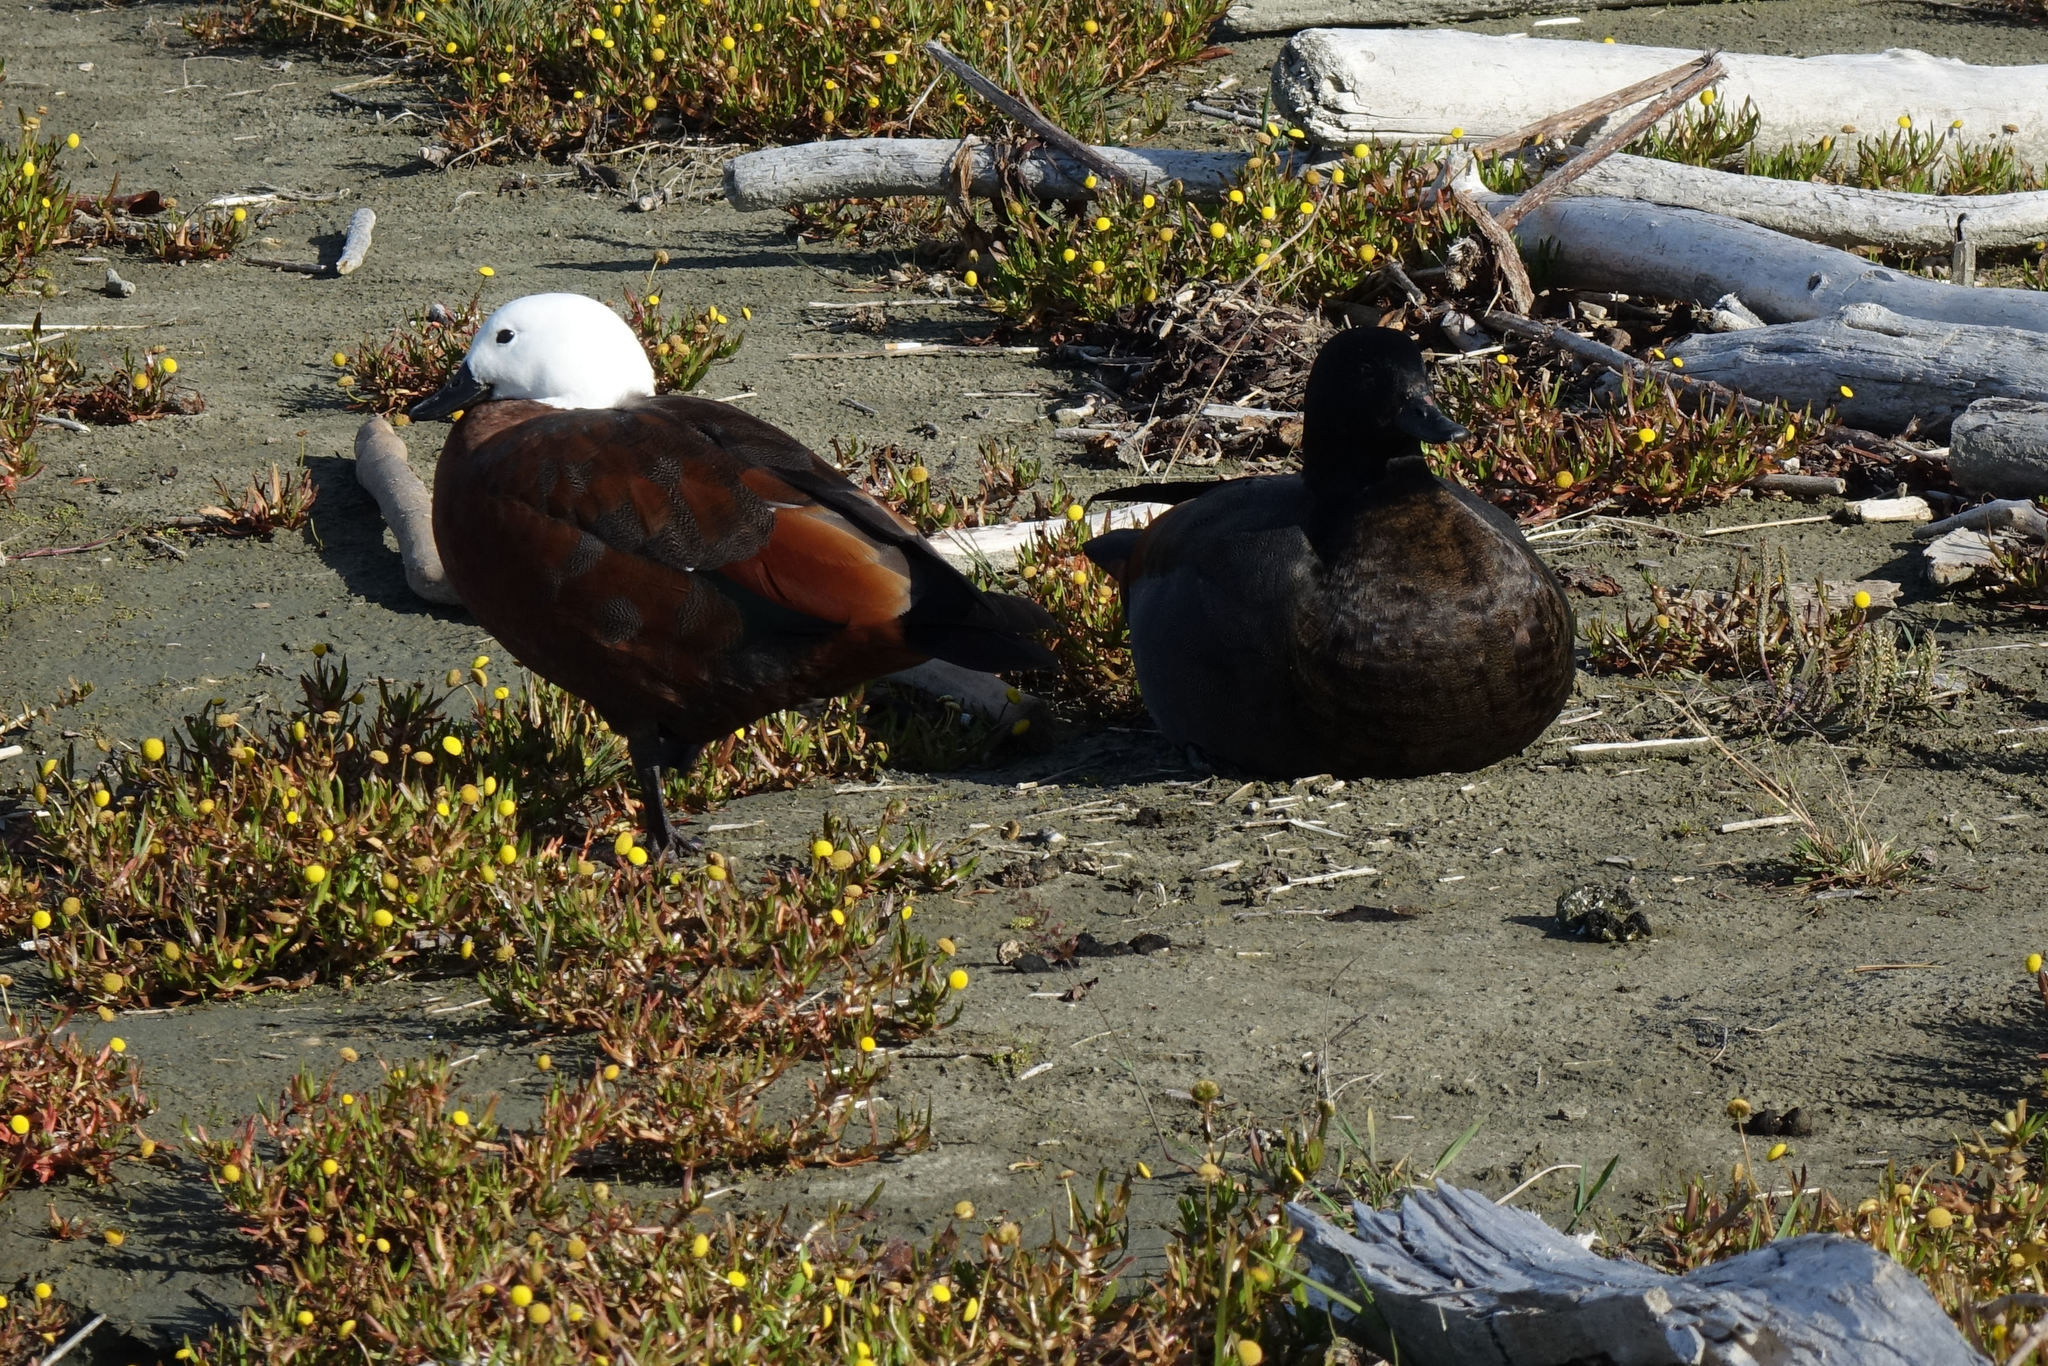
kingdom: Animalia
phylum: Chordata
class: Aves
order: Anseriformes
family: Anatidae
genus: Tadorna
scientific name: Tadorna variegata
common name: Paradise shelduck
